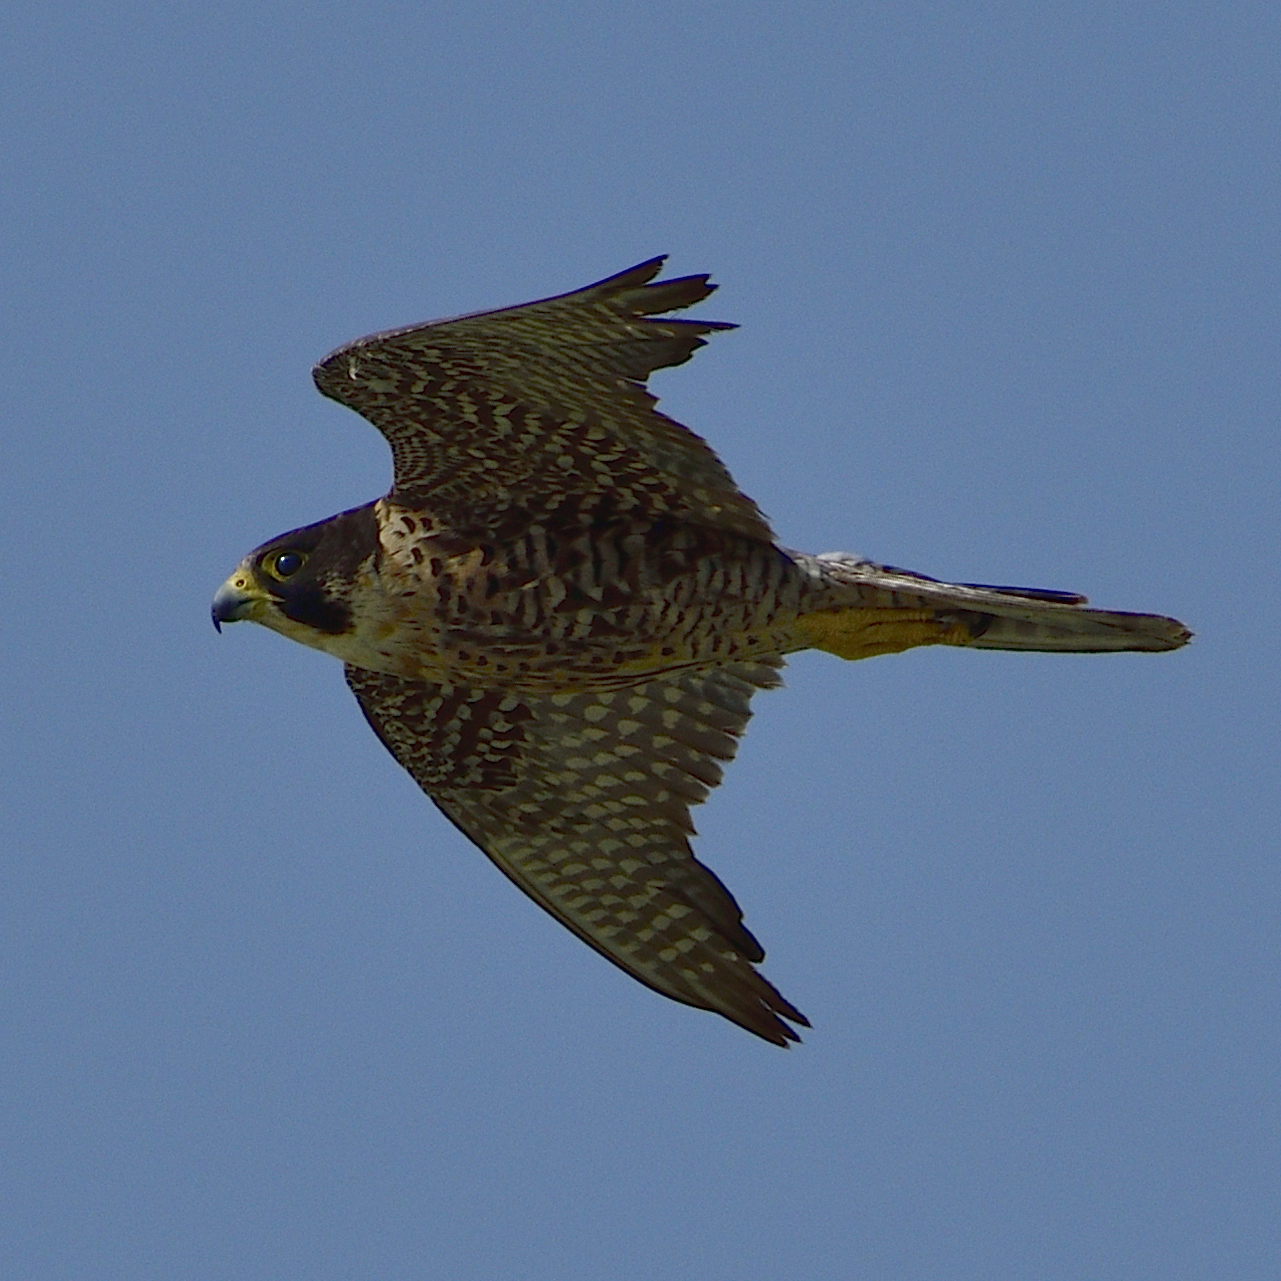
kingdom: Animalia
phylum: Chordata
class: Aves
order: Falconiformes
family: Falconidae
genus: Falco
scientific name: Falco peregrinus
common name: Peregrine falcon
